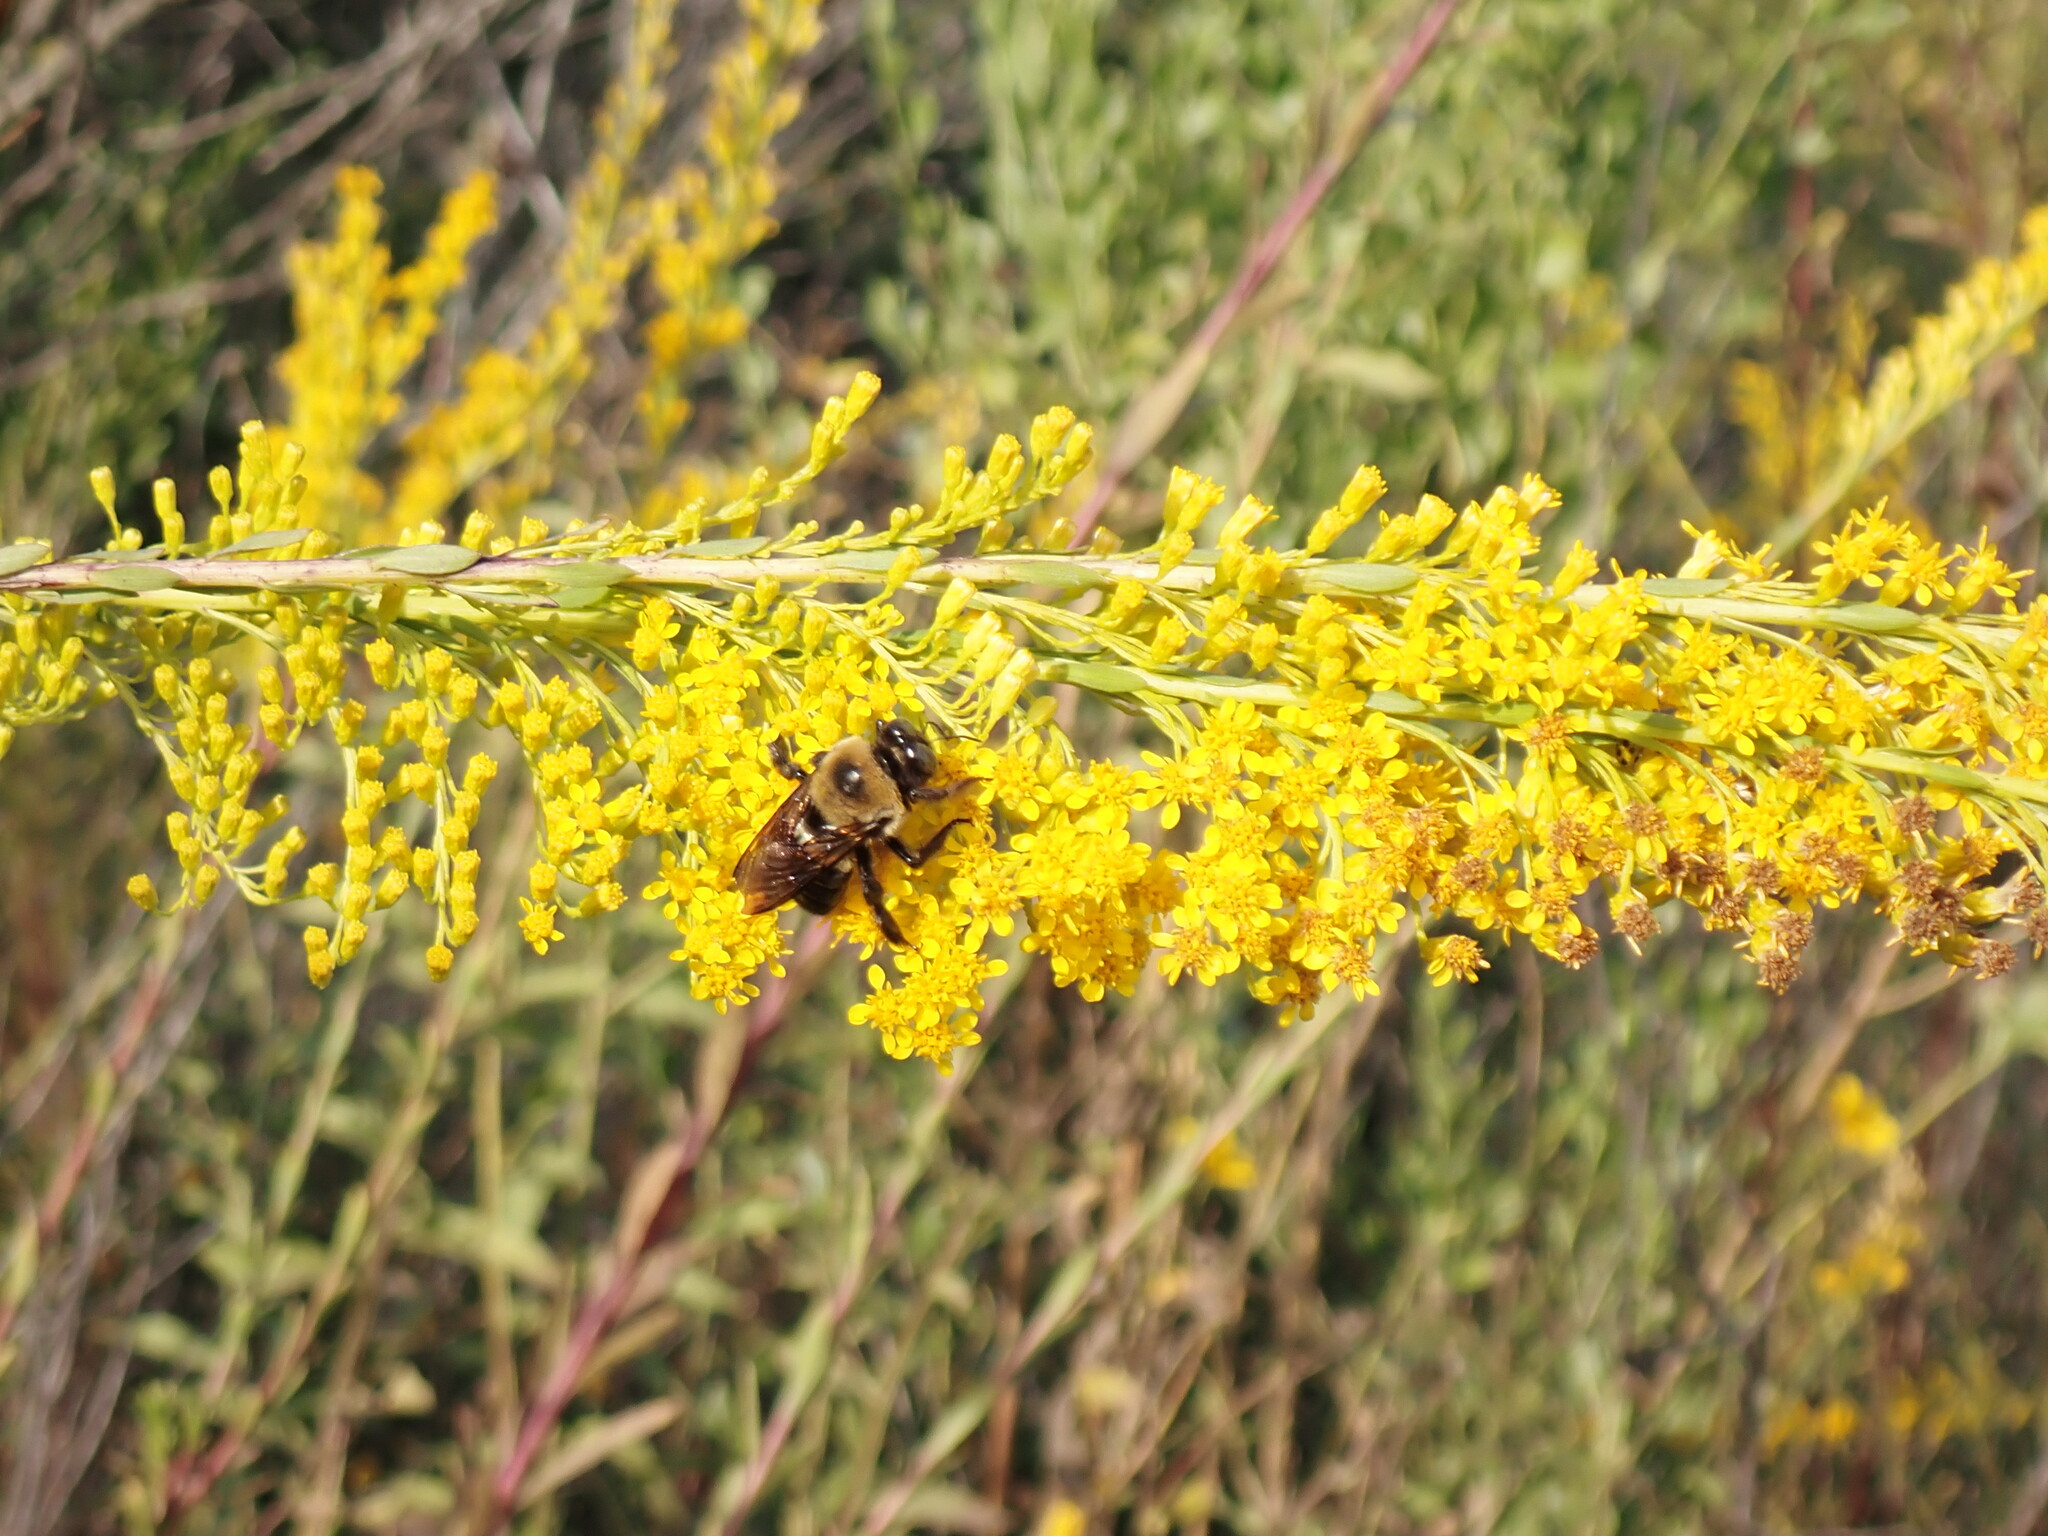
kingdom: Animalia
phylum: Arthropoda
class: Insecta
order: Hymenoptera
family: Apidae
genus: Xylocopa
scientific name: Xylocopa virginica
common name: Carpenter bee
